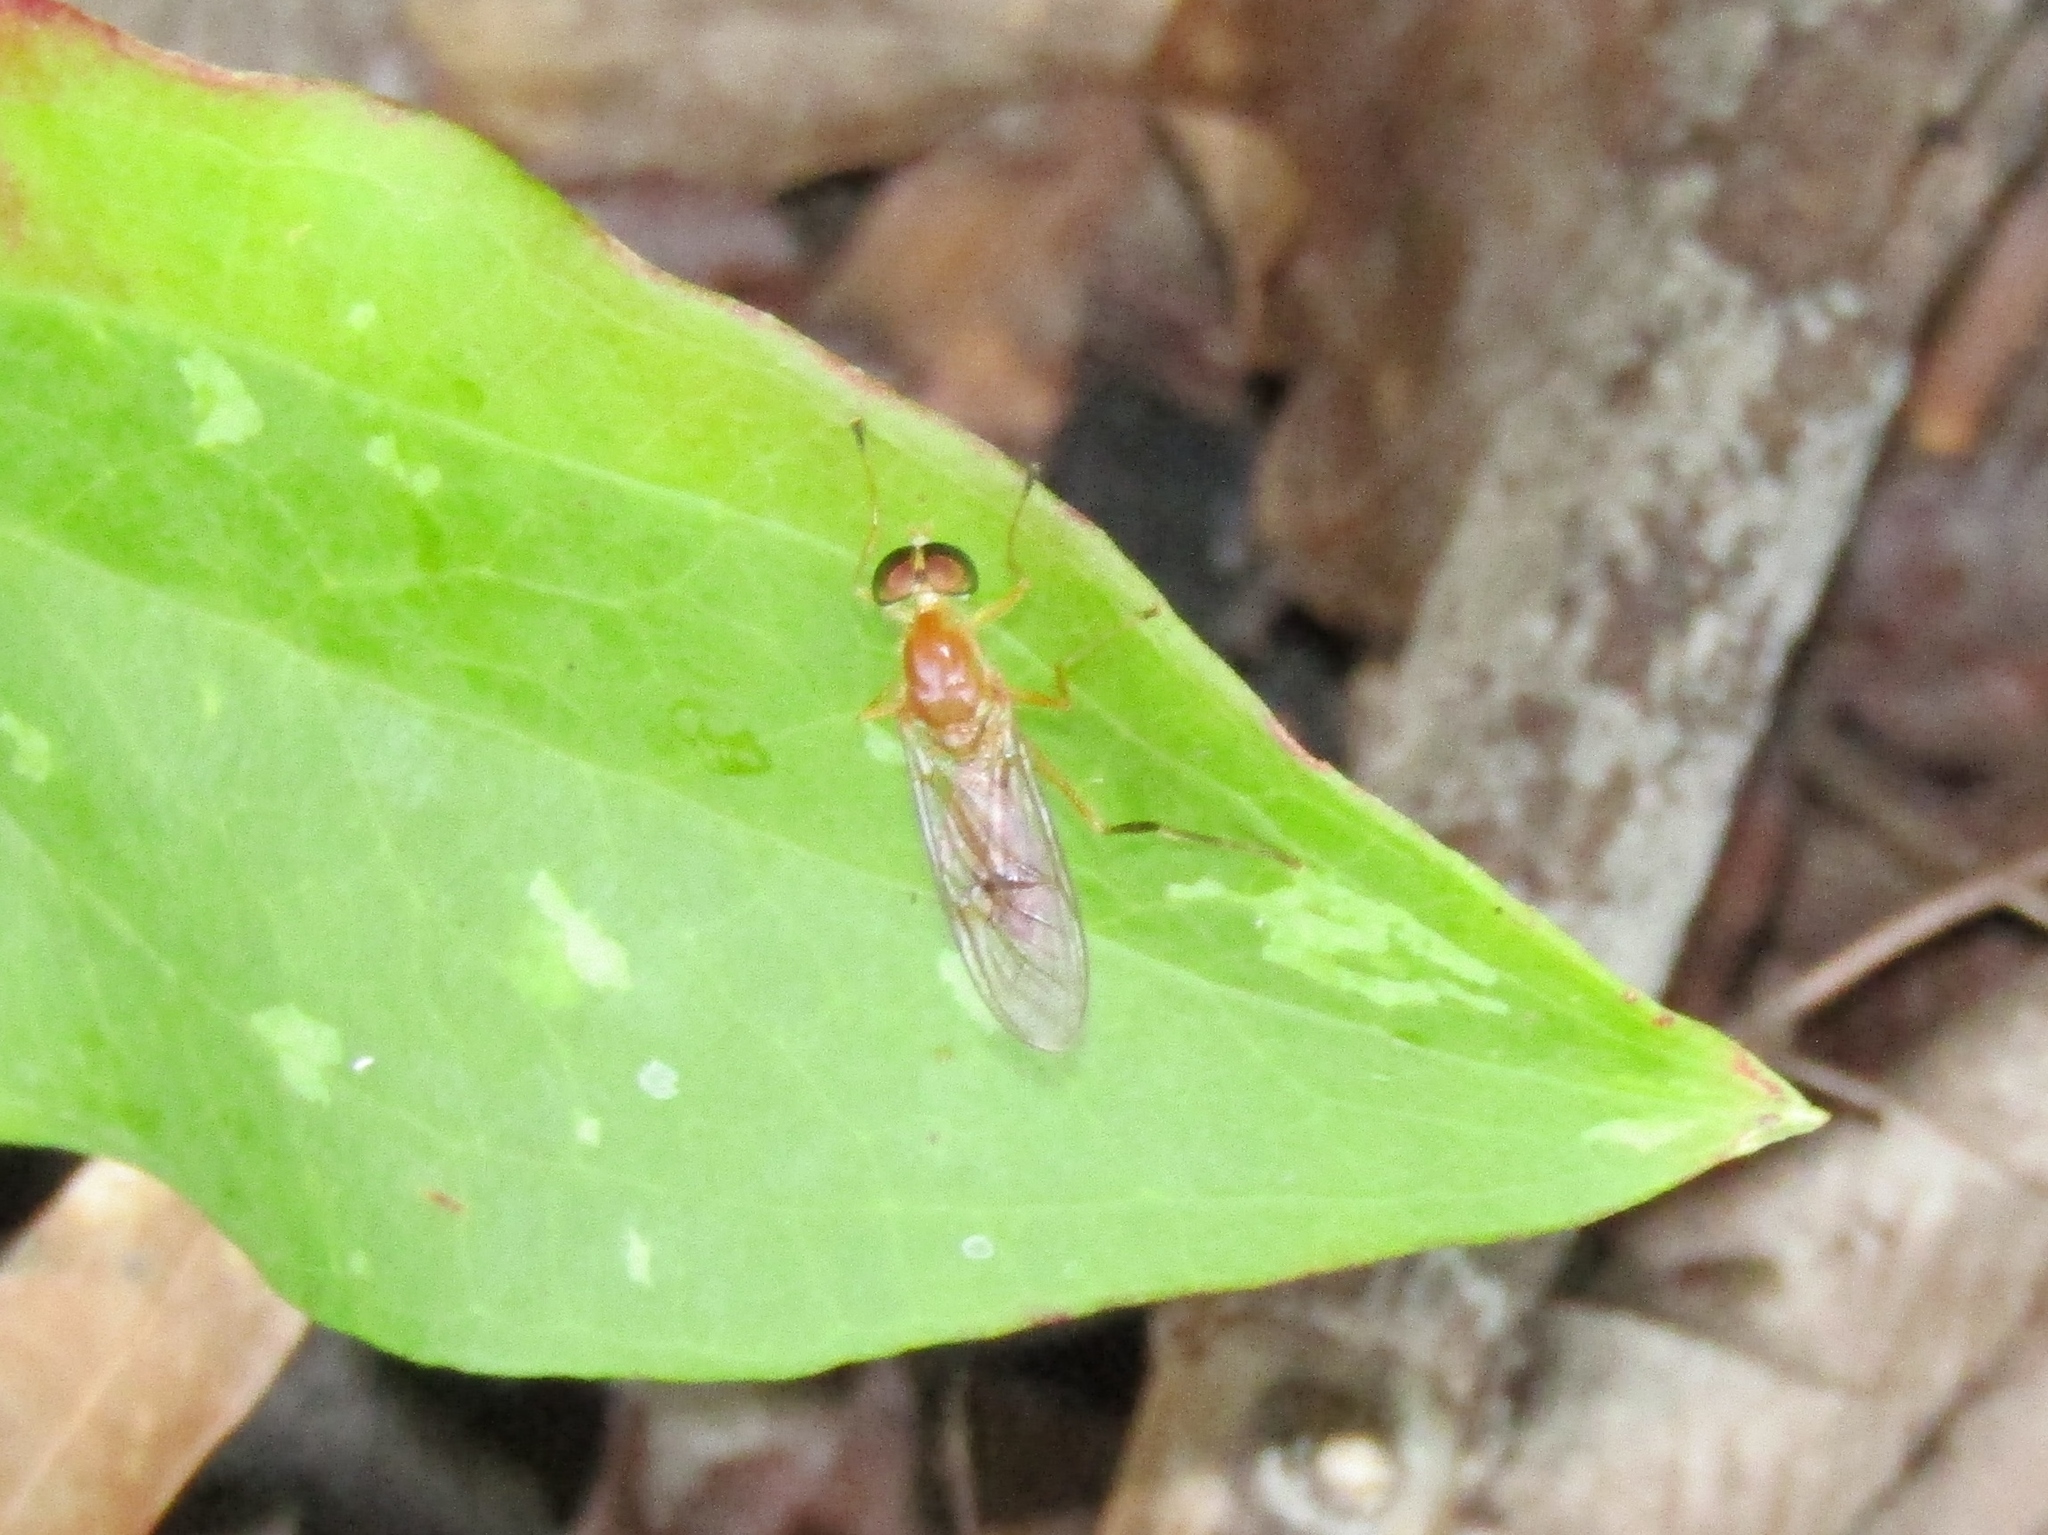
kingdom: Animalia
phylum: Arthropoda
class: Insecta
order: Diptera
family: Stratiomyidae
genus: Ptecticus
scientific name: Ptecticus trivittatus
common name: Compost fly
